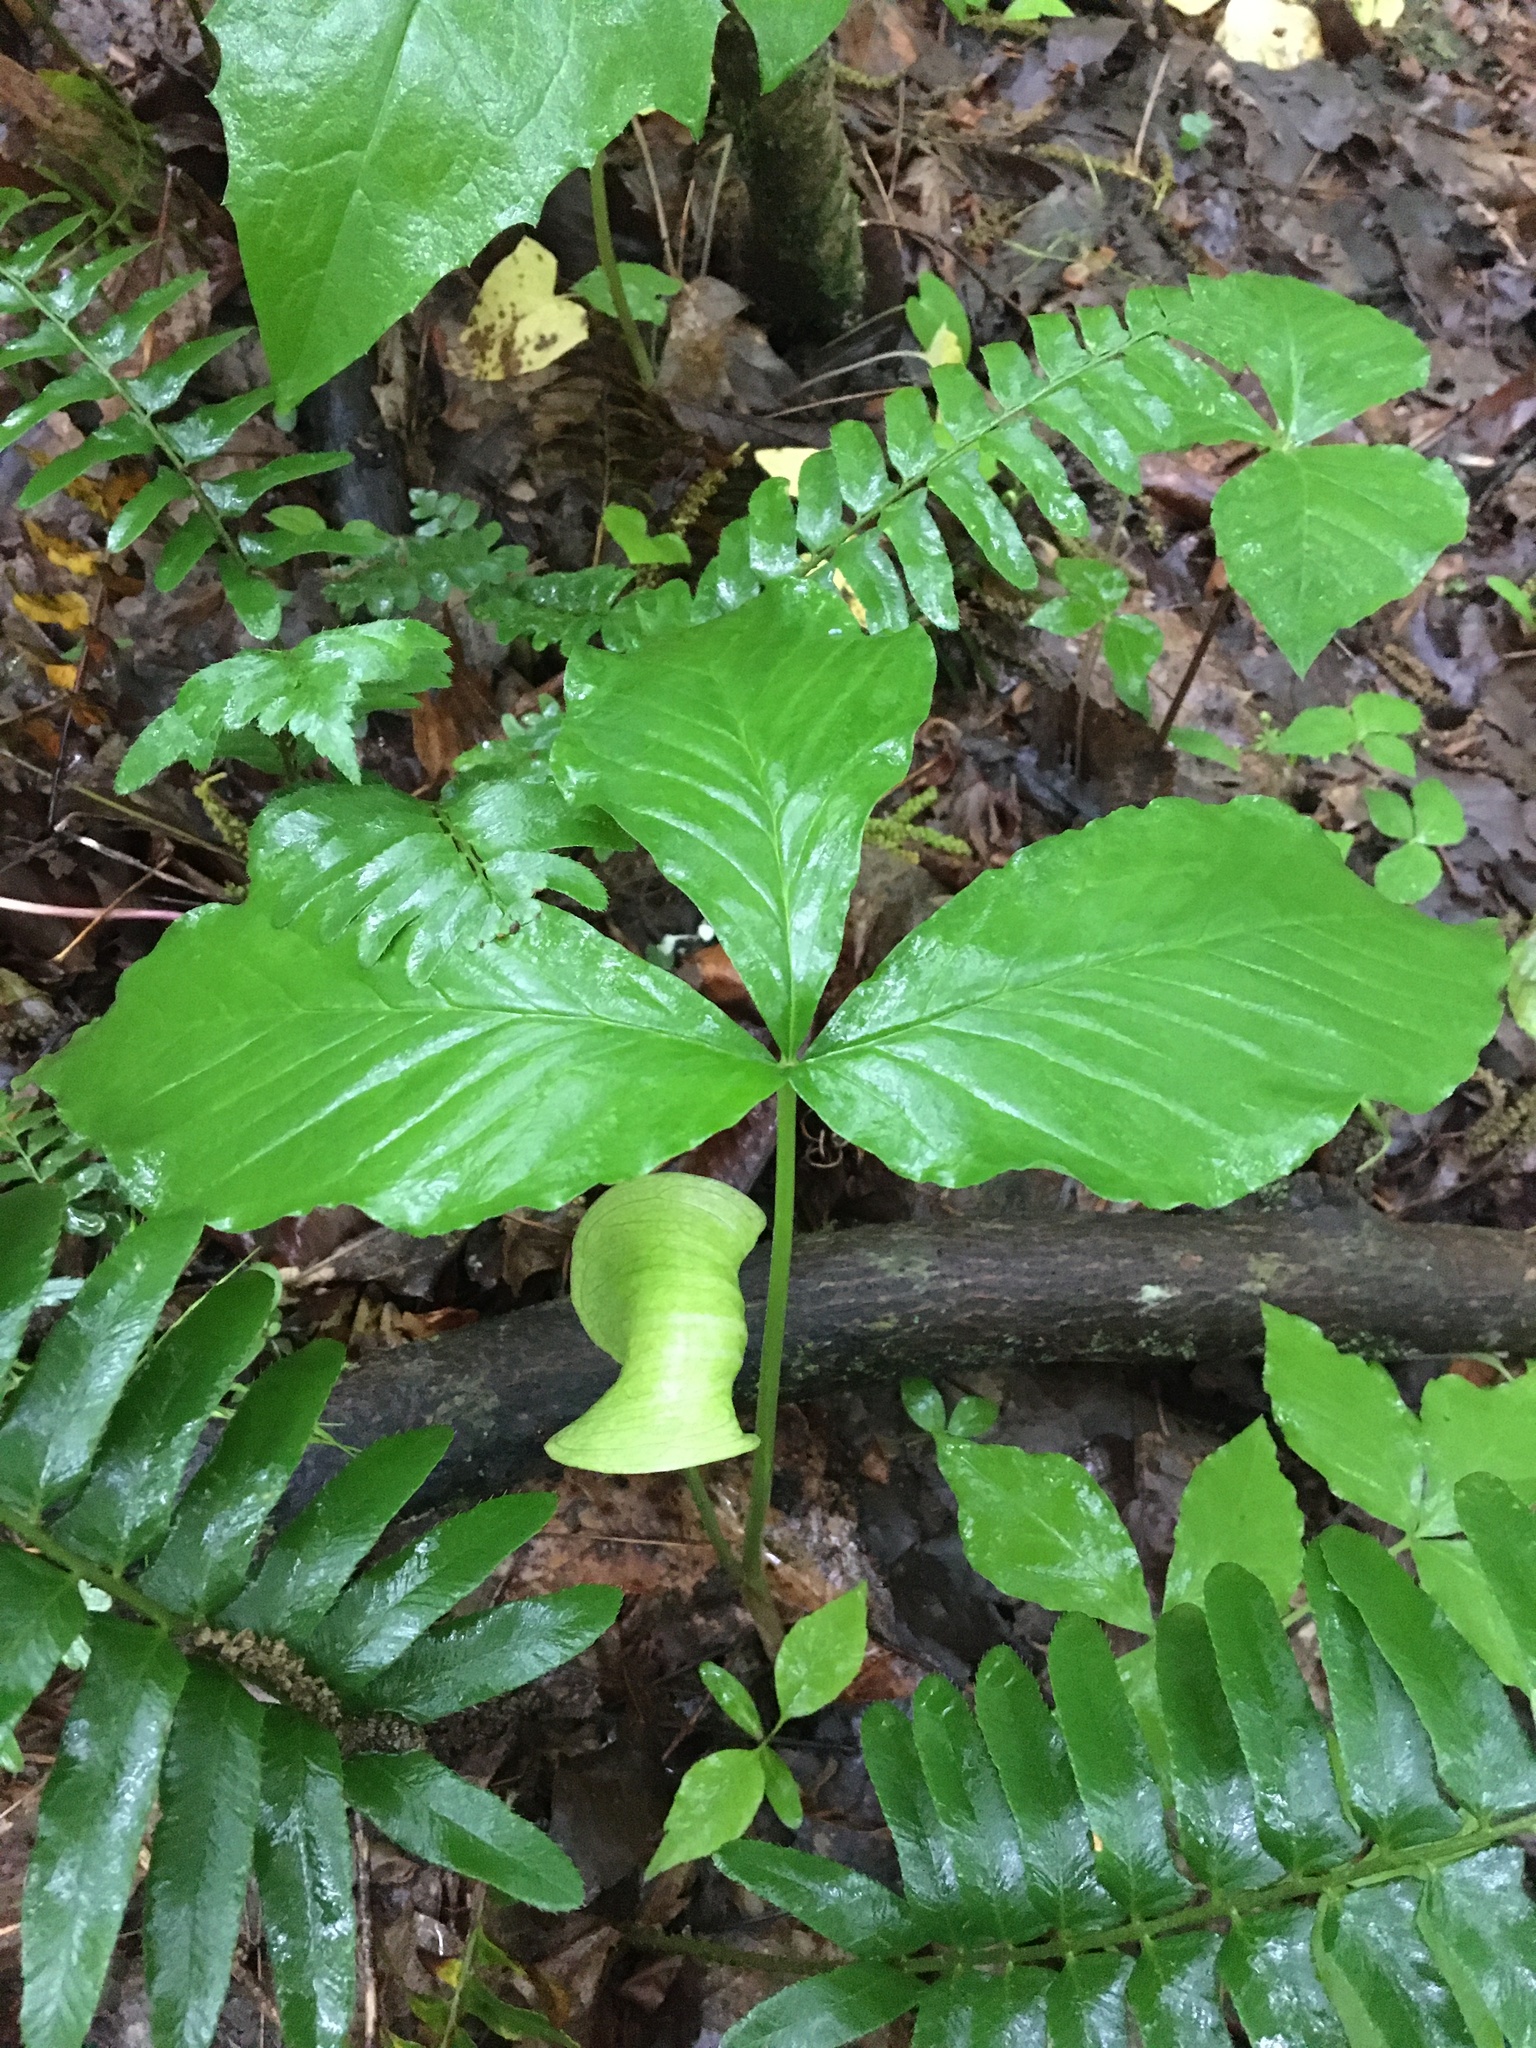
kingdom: Plantae
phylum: Tracheophyta
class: Liliopsida
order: Alismatales
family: Araceae
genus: Arisaema
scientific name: Arisaema triphyllum
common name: Jack-in-the-pulpit
